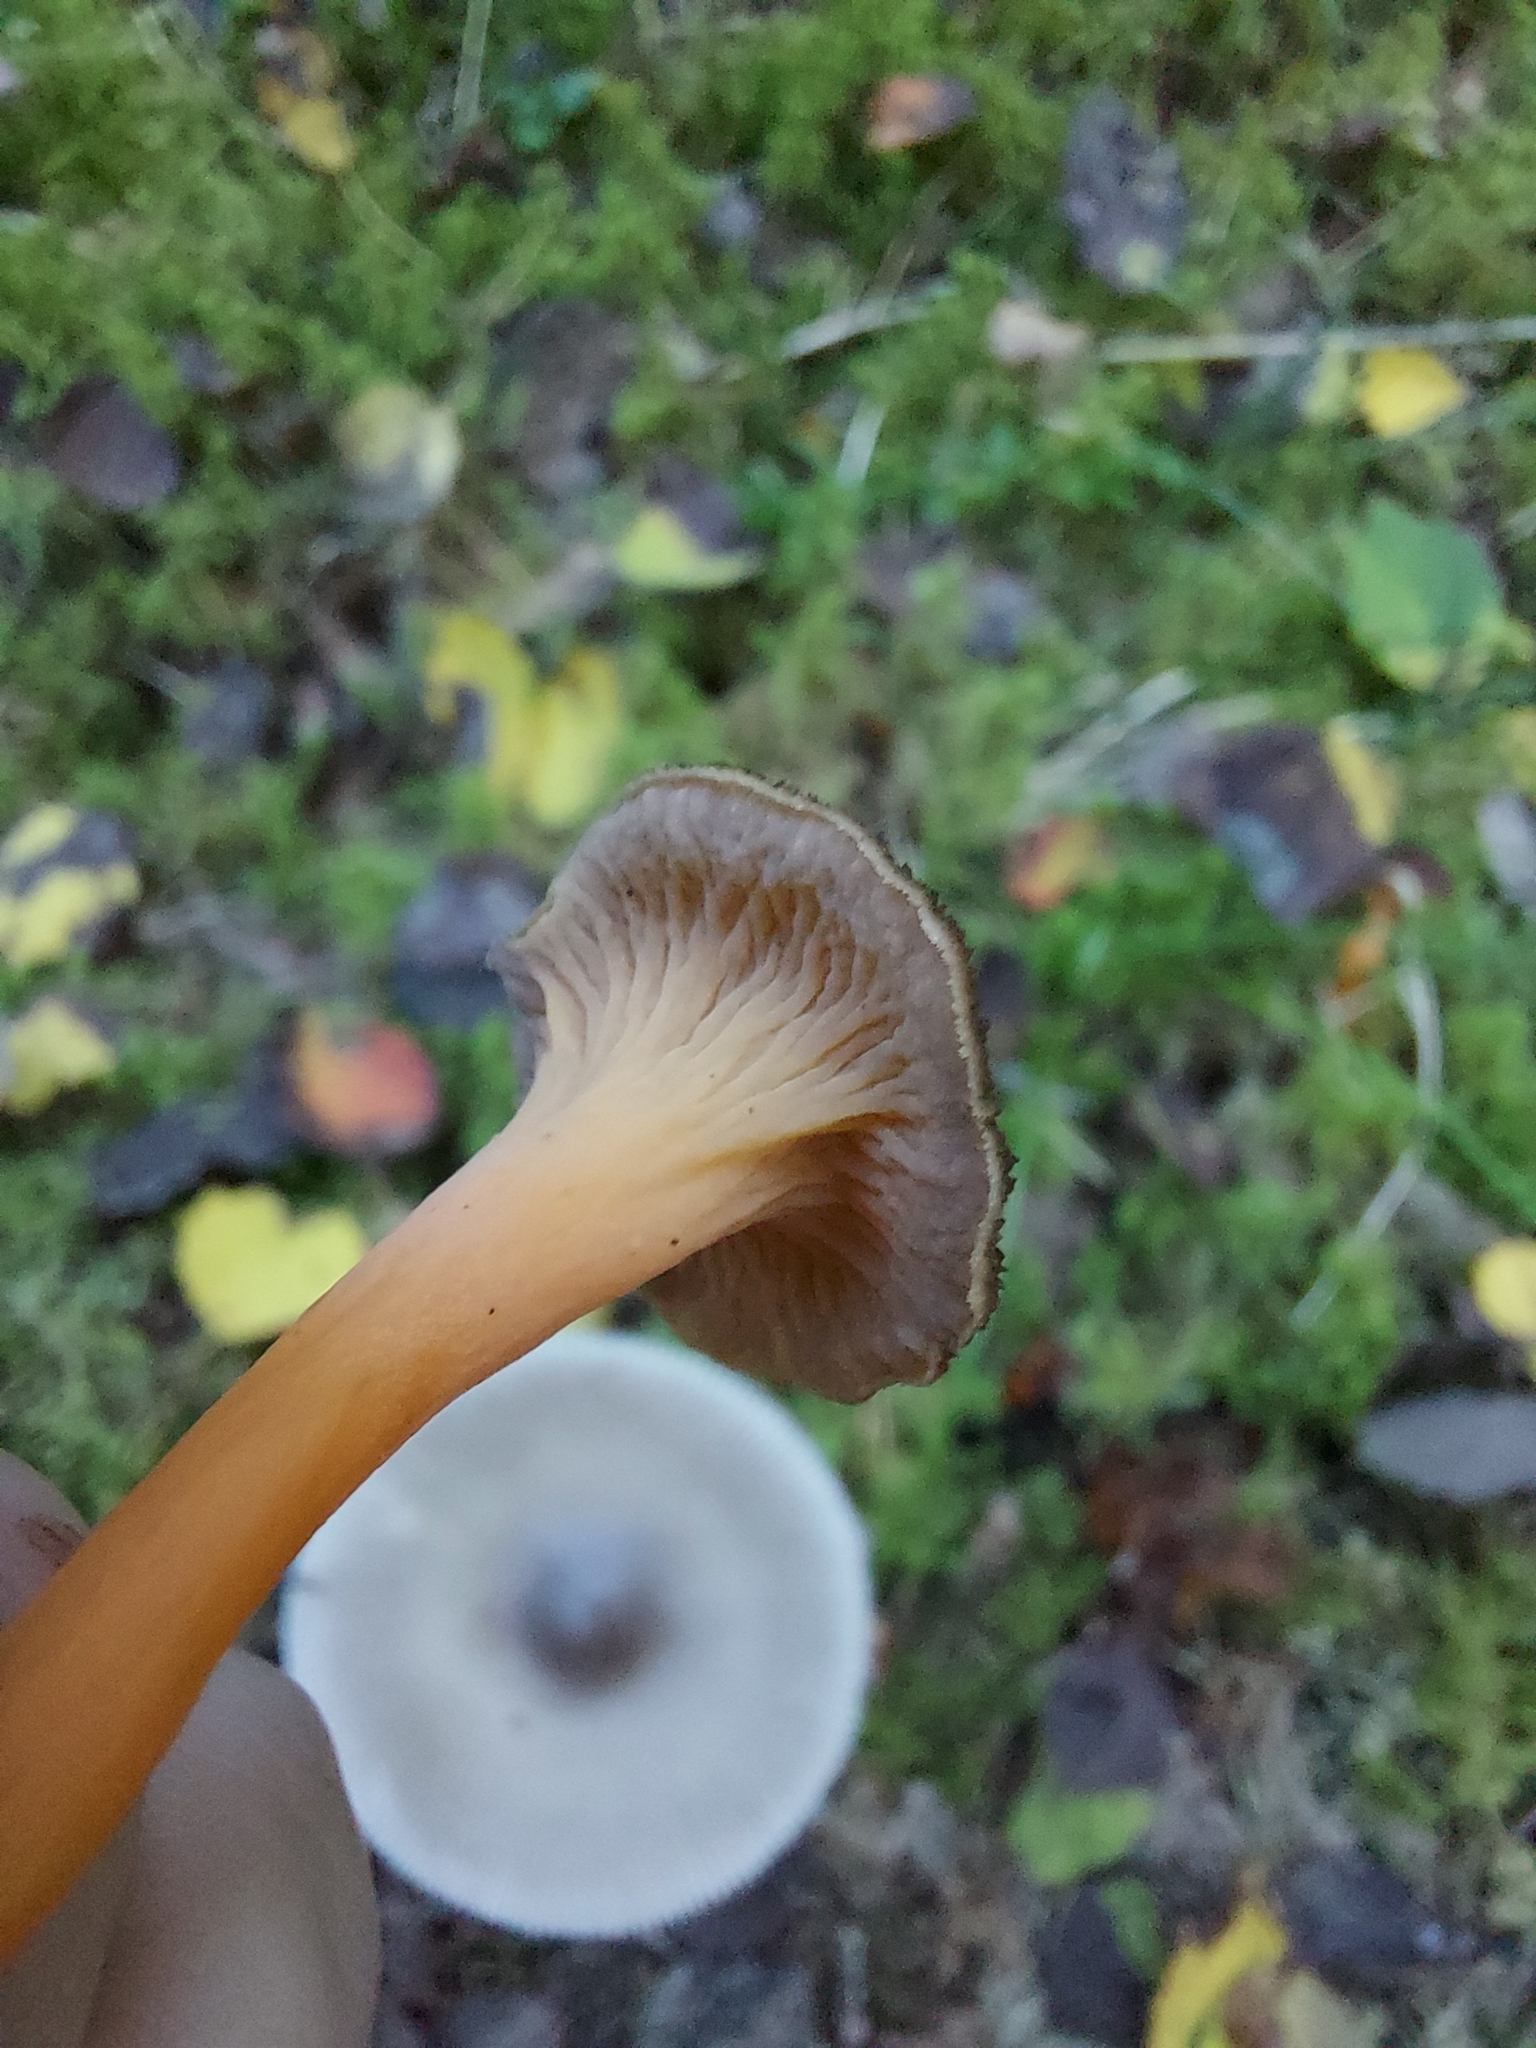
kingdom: Fungi
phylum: Basidiomycota
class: Agaricomycetes
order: Cantharellales
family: Hydnaceae
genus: Craterellus
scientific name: Craterellus lutescens
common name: Golden chanterelle
